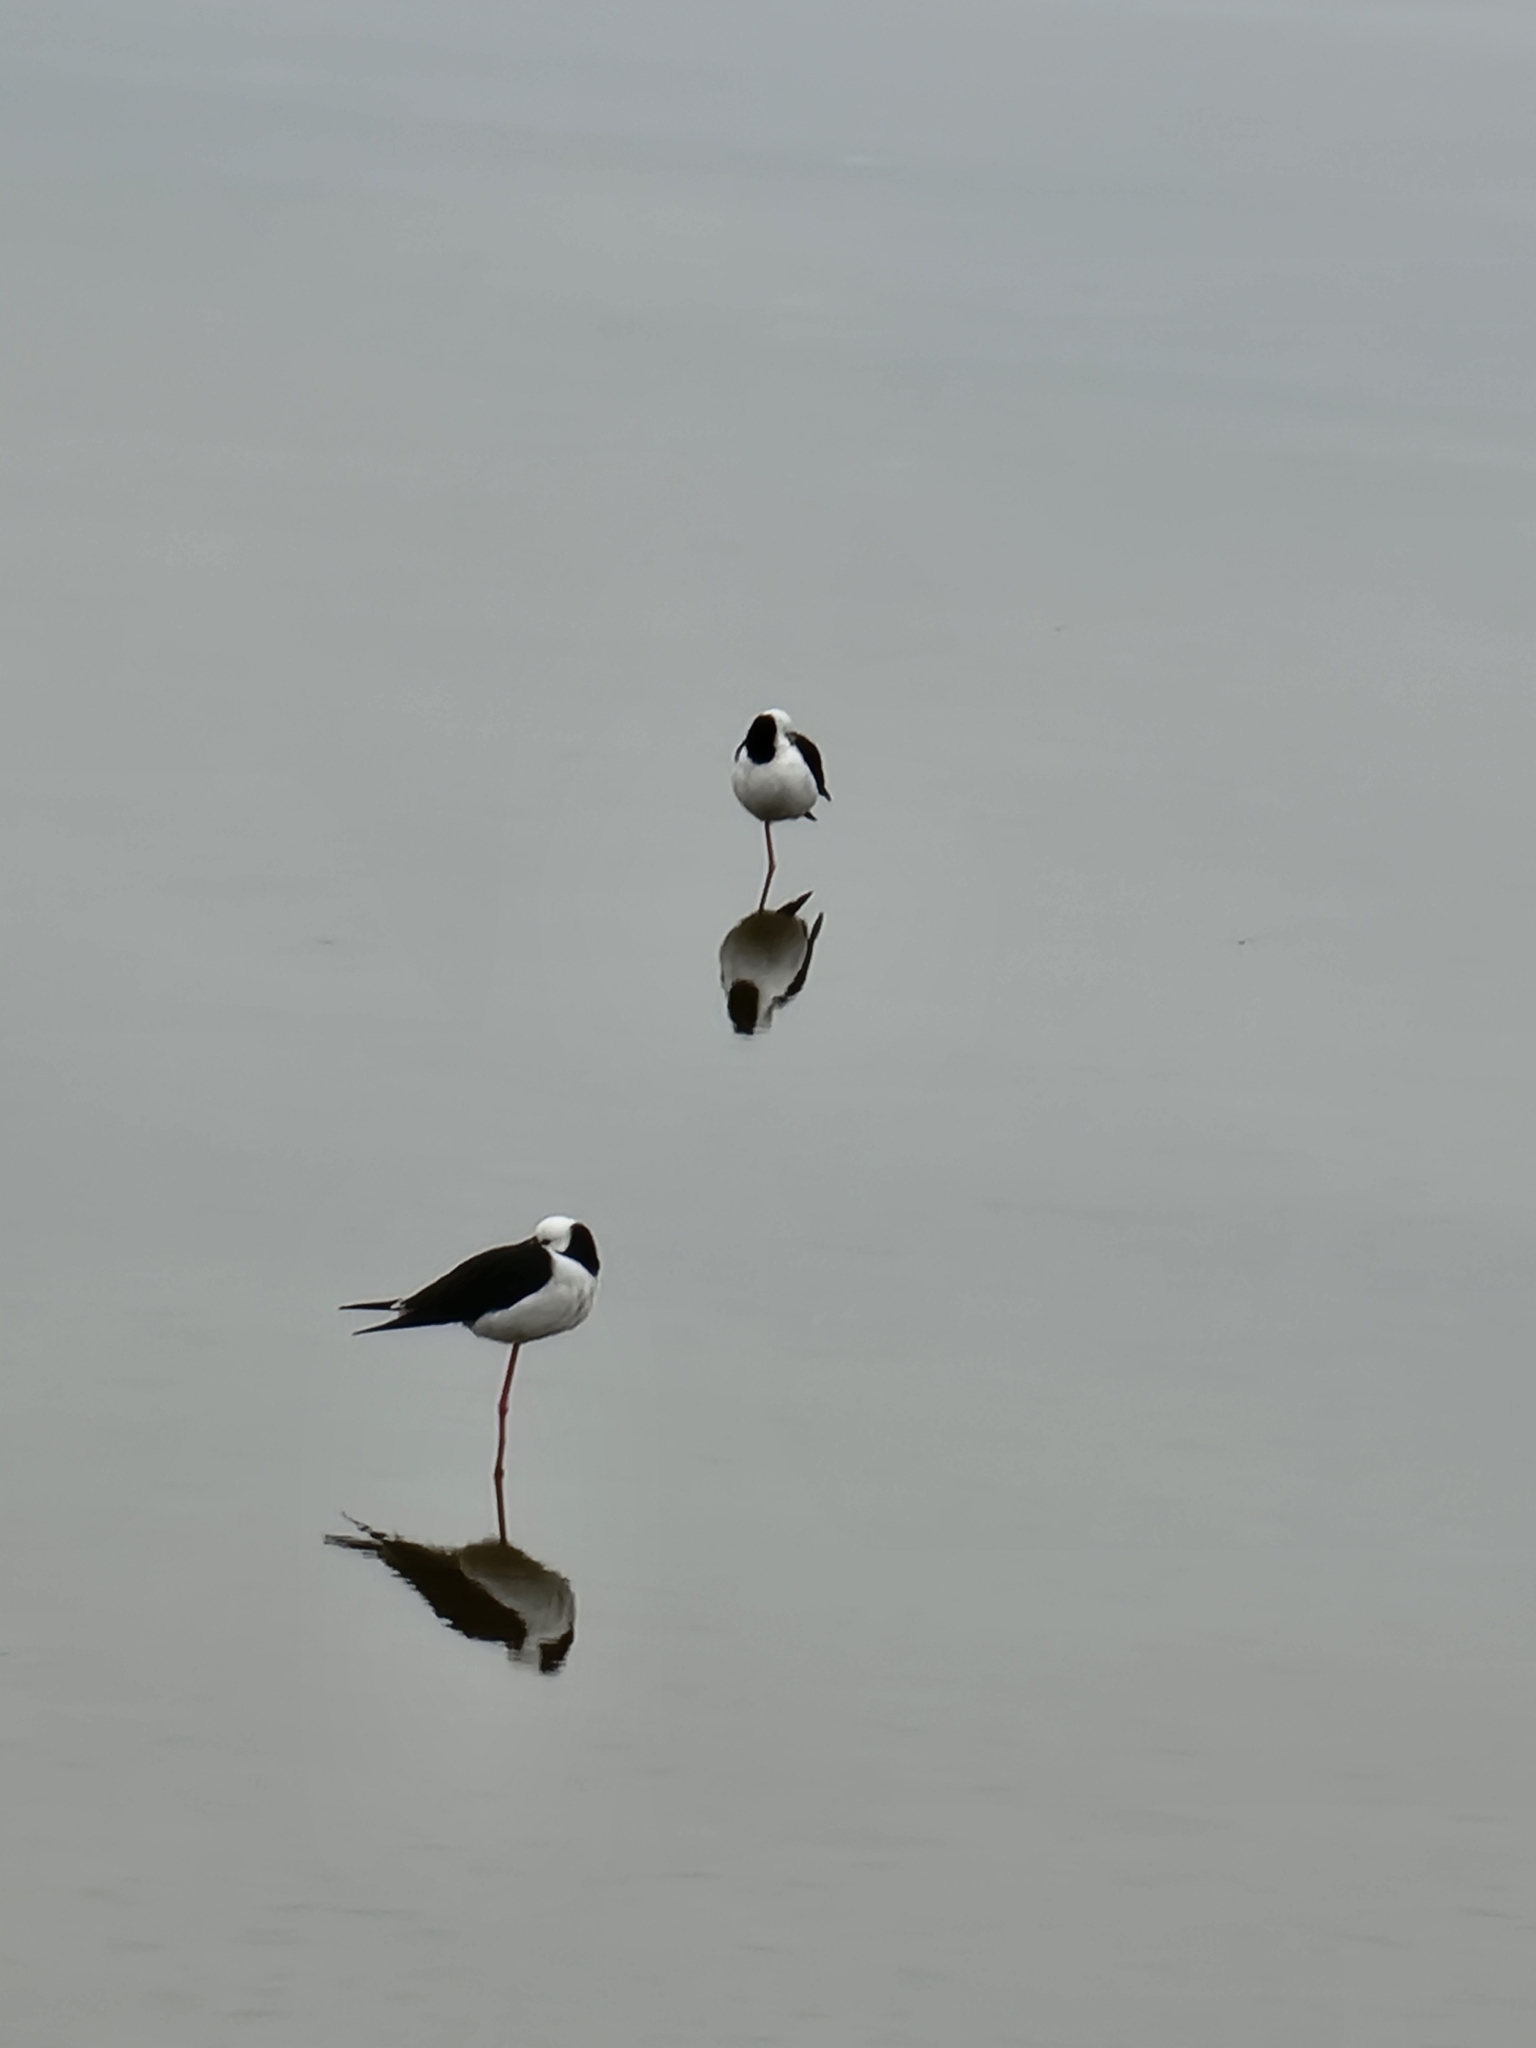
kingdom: Animalia
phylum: Chordata
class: Aves
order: Charadriiformes
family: Recurvirostridae
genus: Himantopus
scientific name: Himantopus leucocephalus
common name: White-headed stilt
